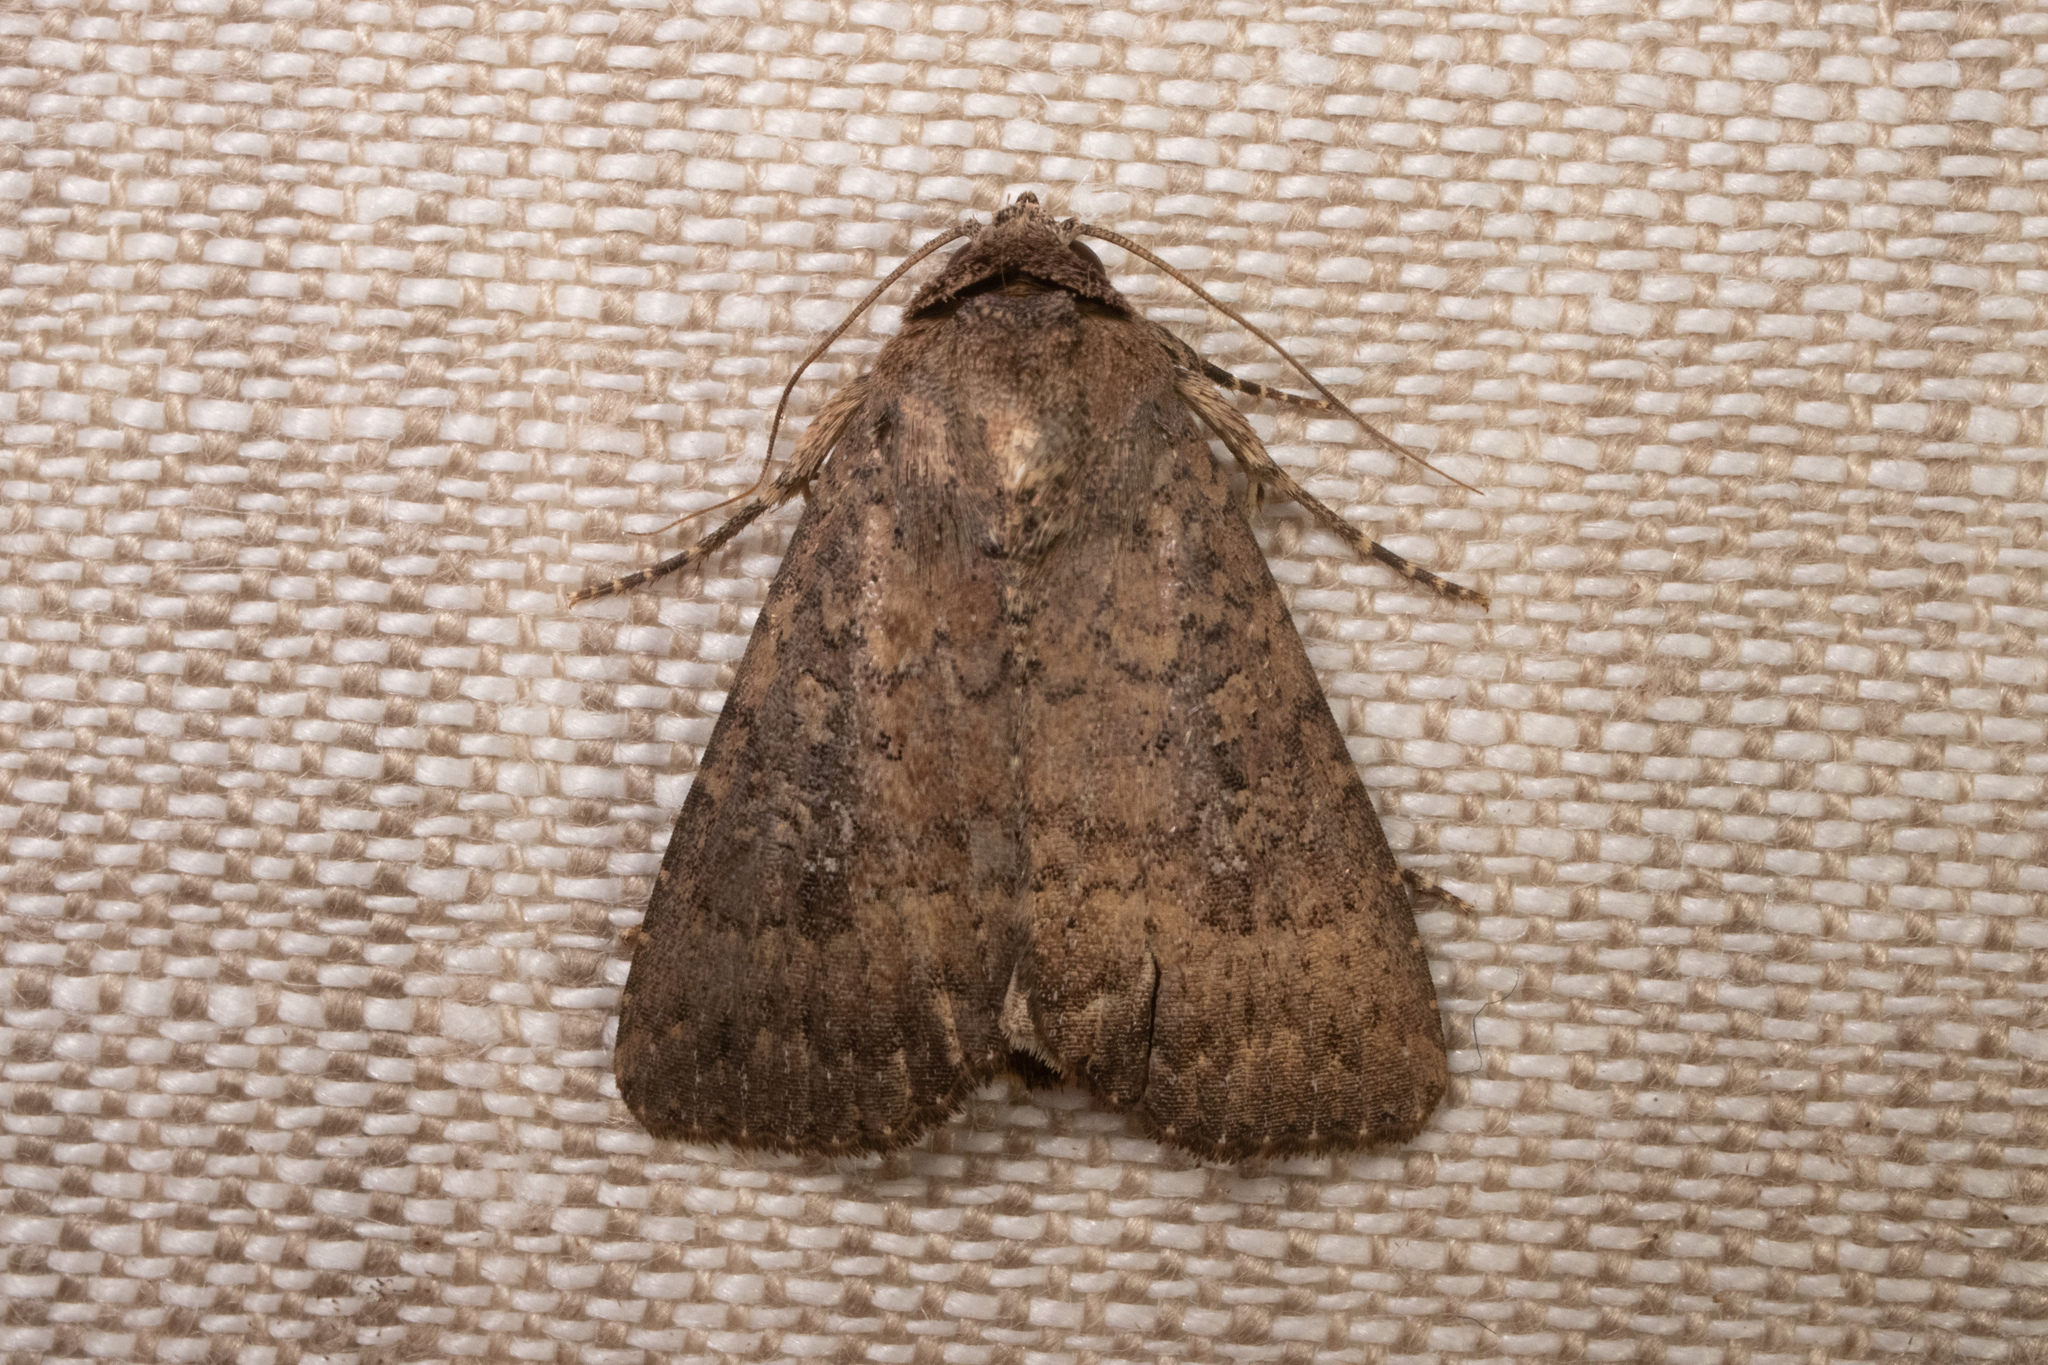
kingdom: Animalia
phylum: Arthropoda
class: Insecta
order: Lepidoptera
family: Noctuidae
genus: Condica
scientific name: Condica sutor
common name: Cobbler moth
